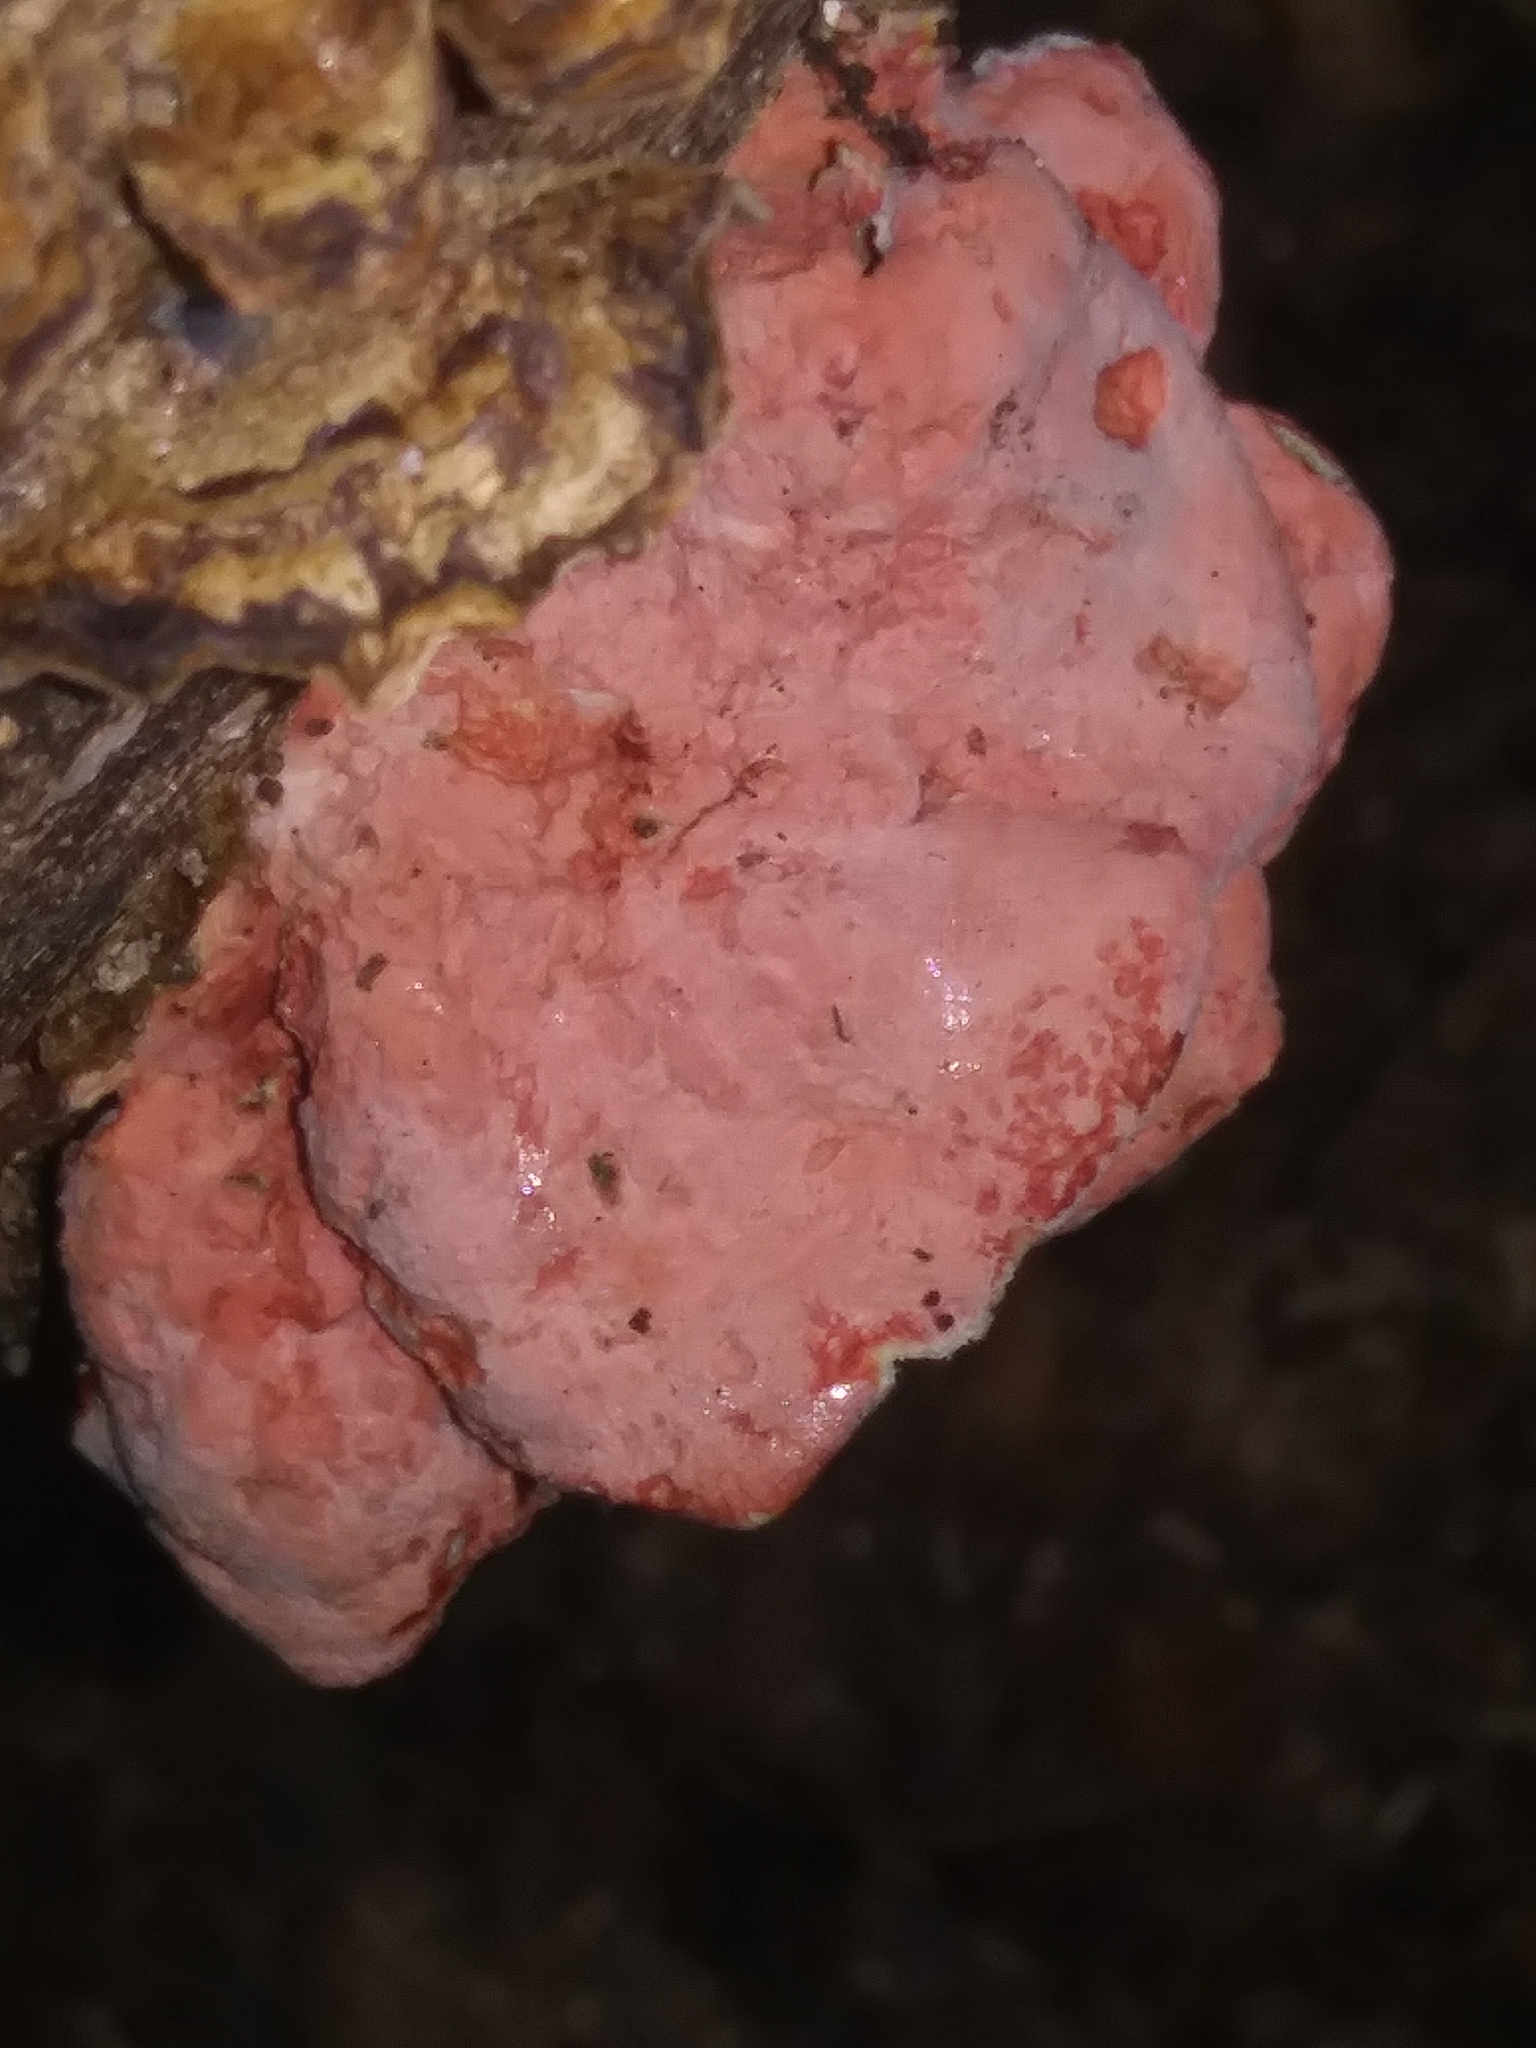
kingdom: Fungi
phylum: Basidiomycota
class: Agaricomycetes
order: Polyporales
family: Irpicaceae
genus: Byssomerulius
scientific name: Byssomerulius incarnatus
